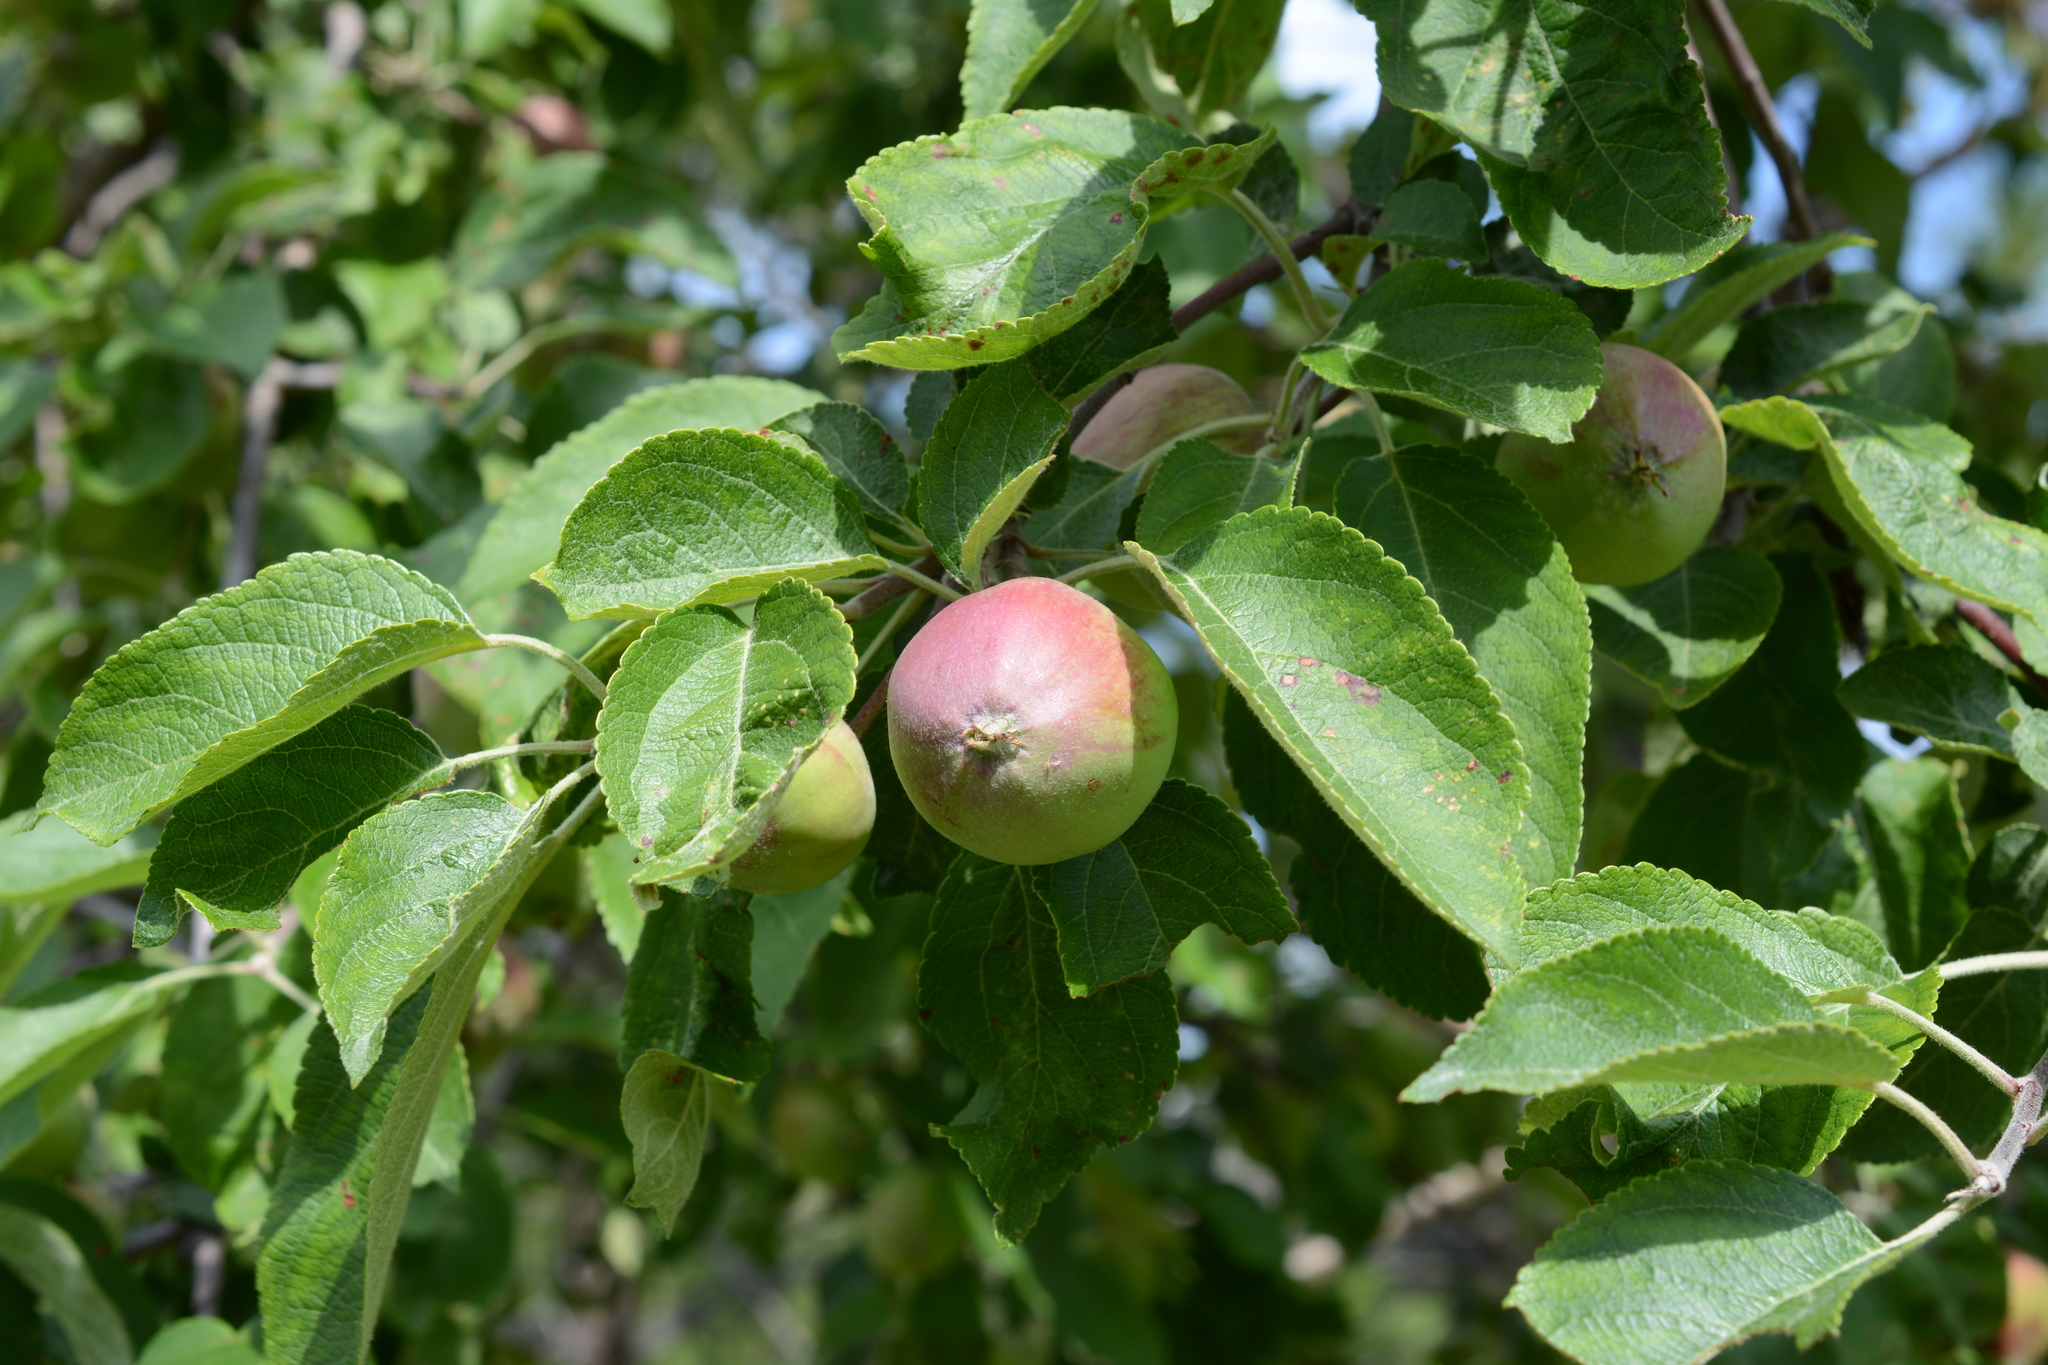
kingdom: Plantae
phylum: Tracheophyta
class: Magnoliopsida
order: Rosales
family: Rosaceae
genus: Malus
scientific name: Malus domestica
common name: Apple
